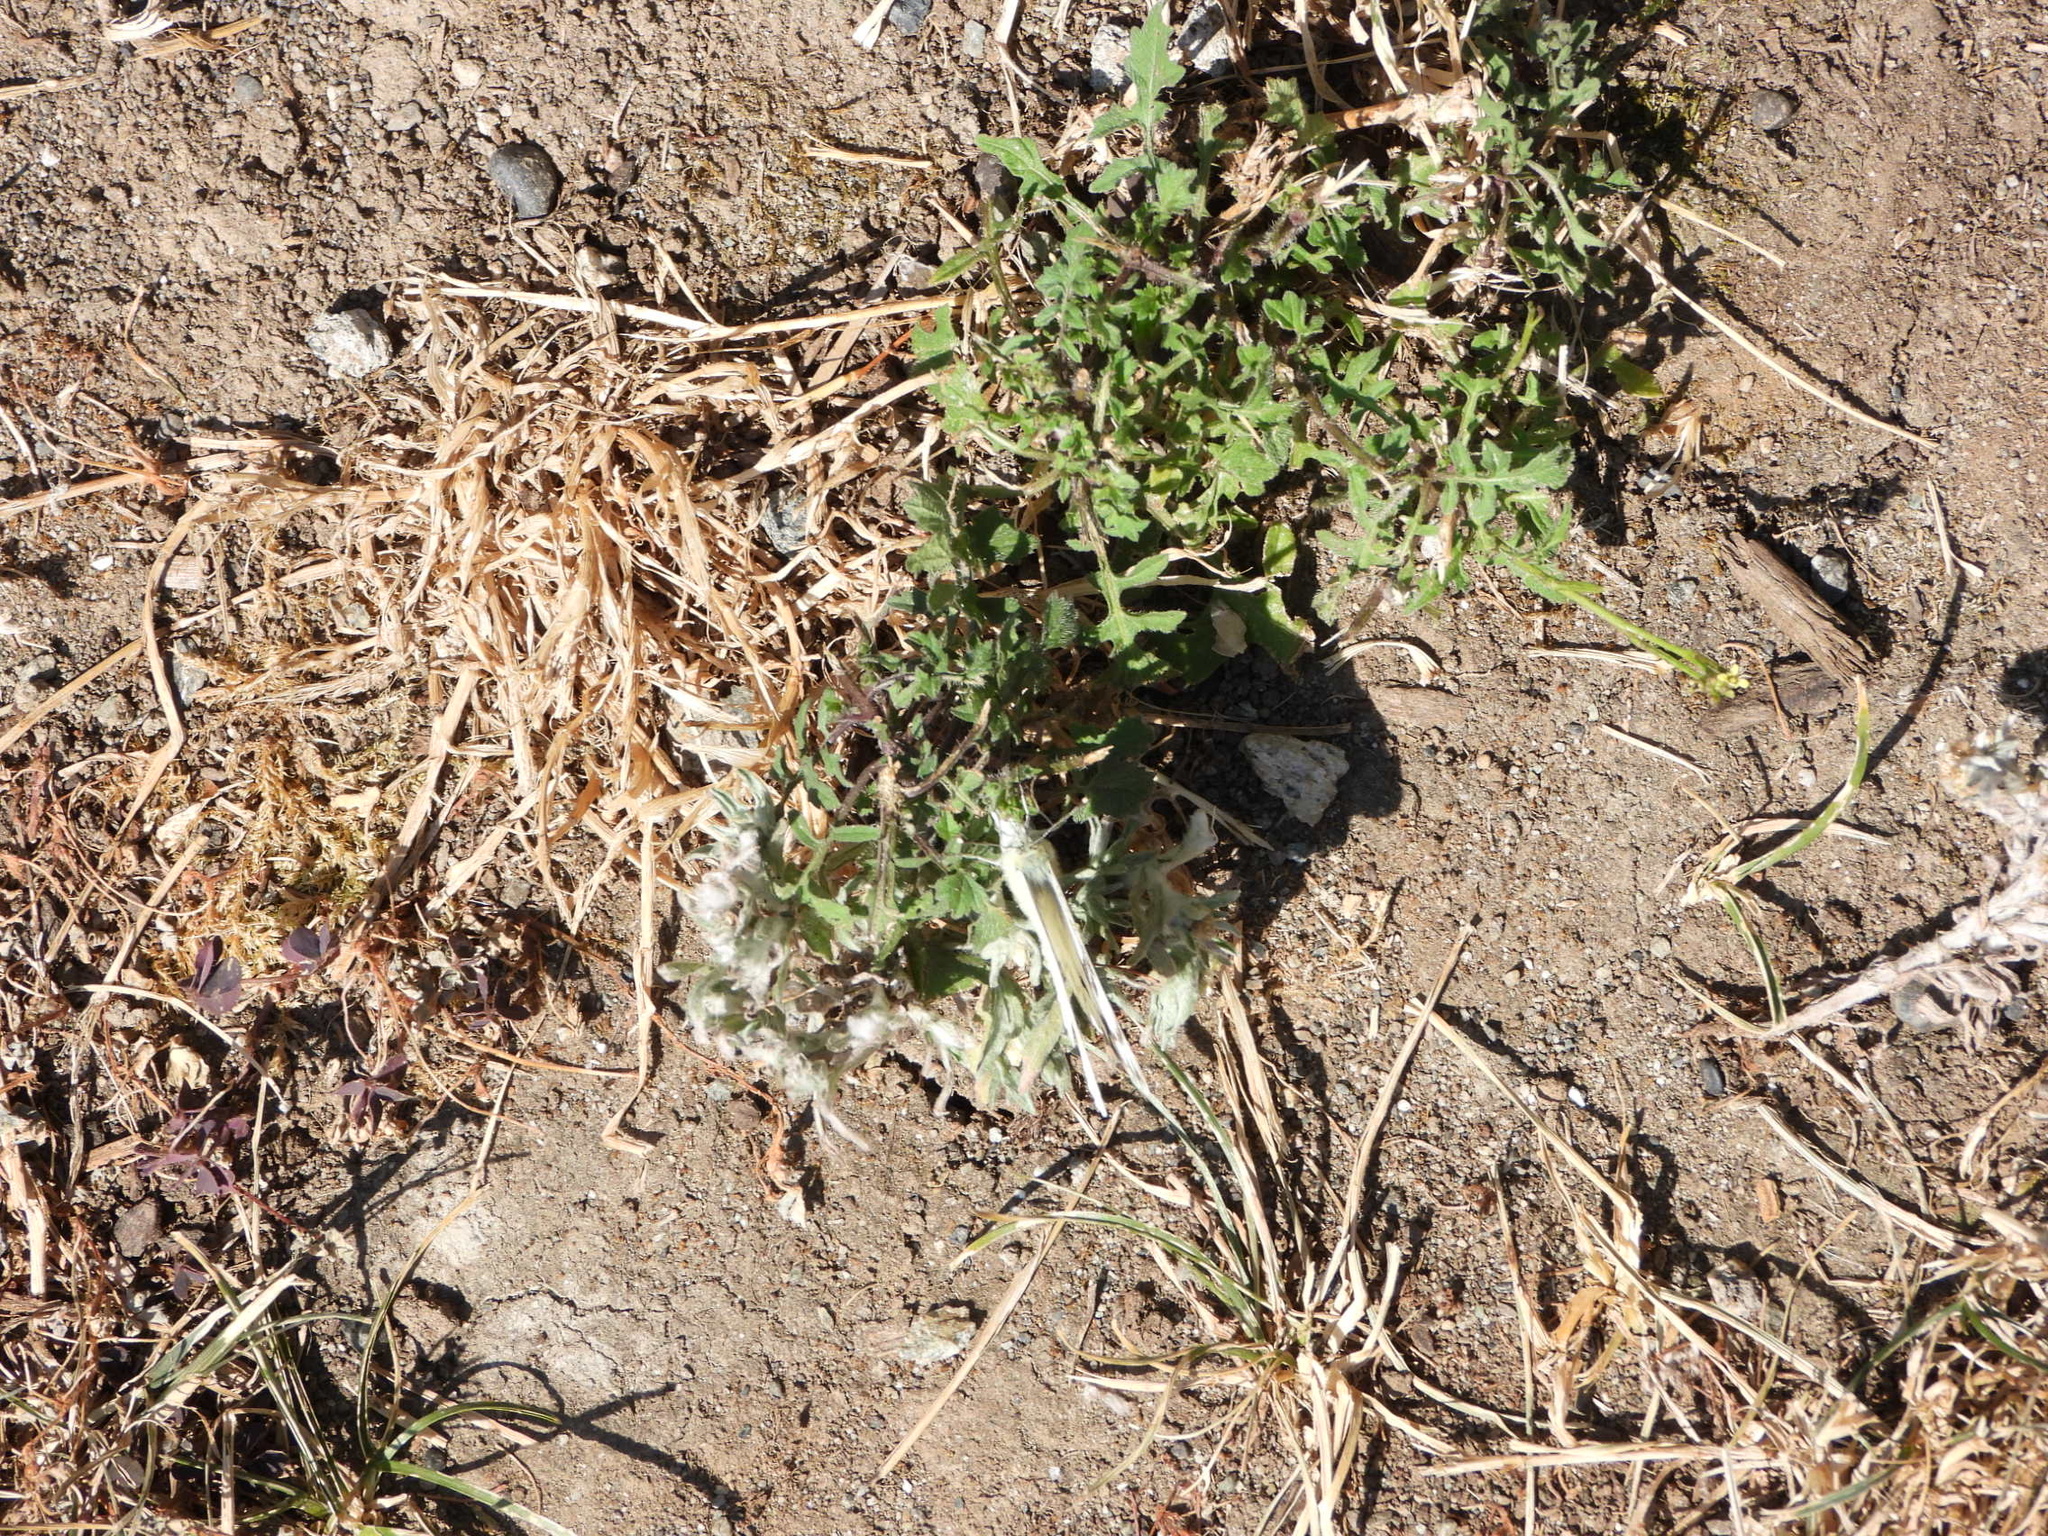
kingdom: Animalia
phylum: Arthropoda
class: Insecta
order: Lepidoptera
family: Pieridae
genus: Pontia
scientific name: Pontia occidentalis
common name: Western white
